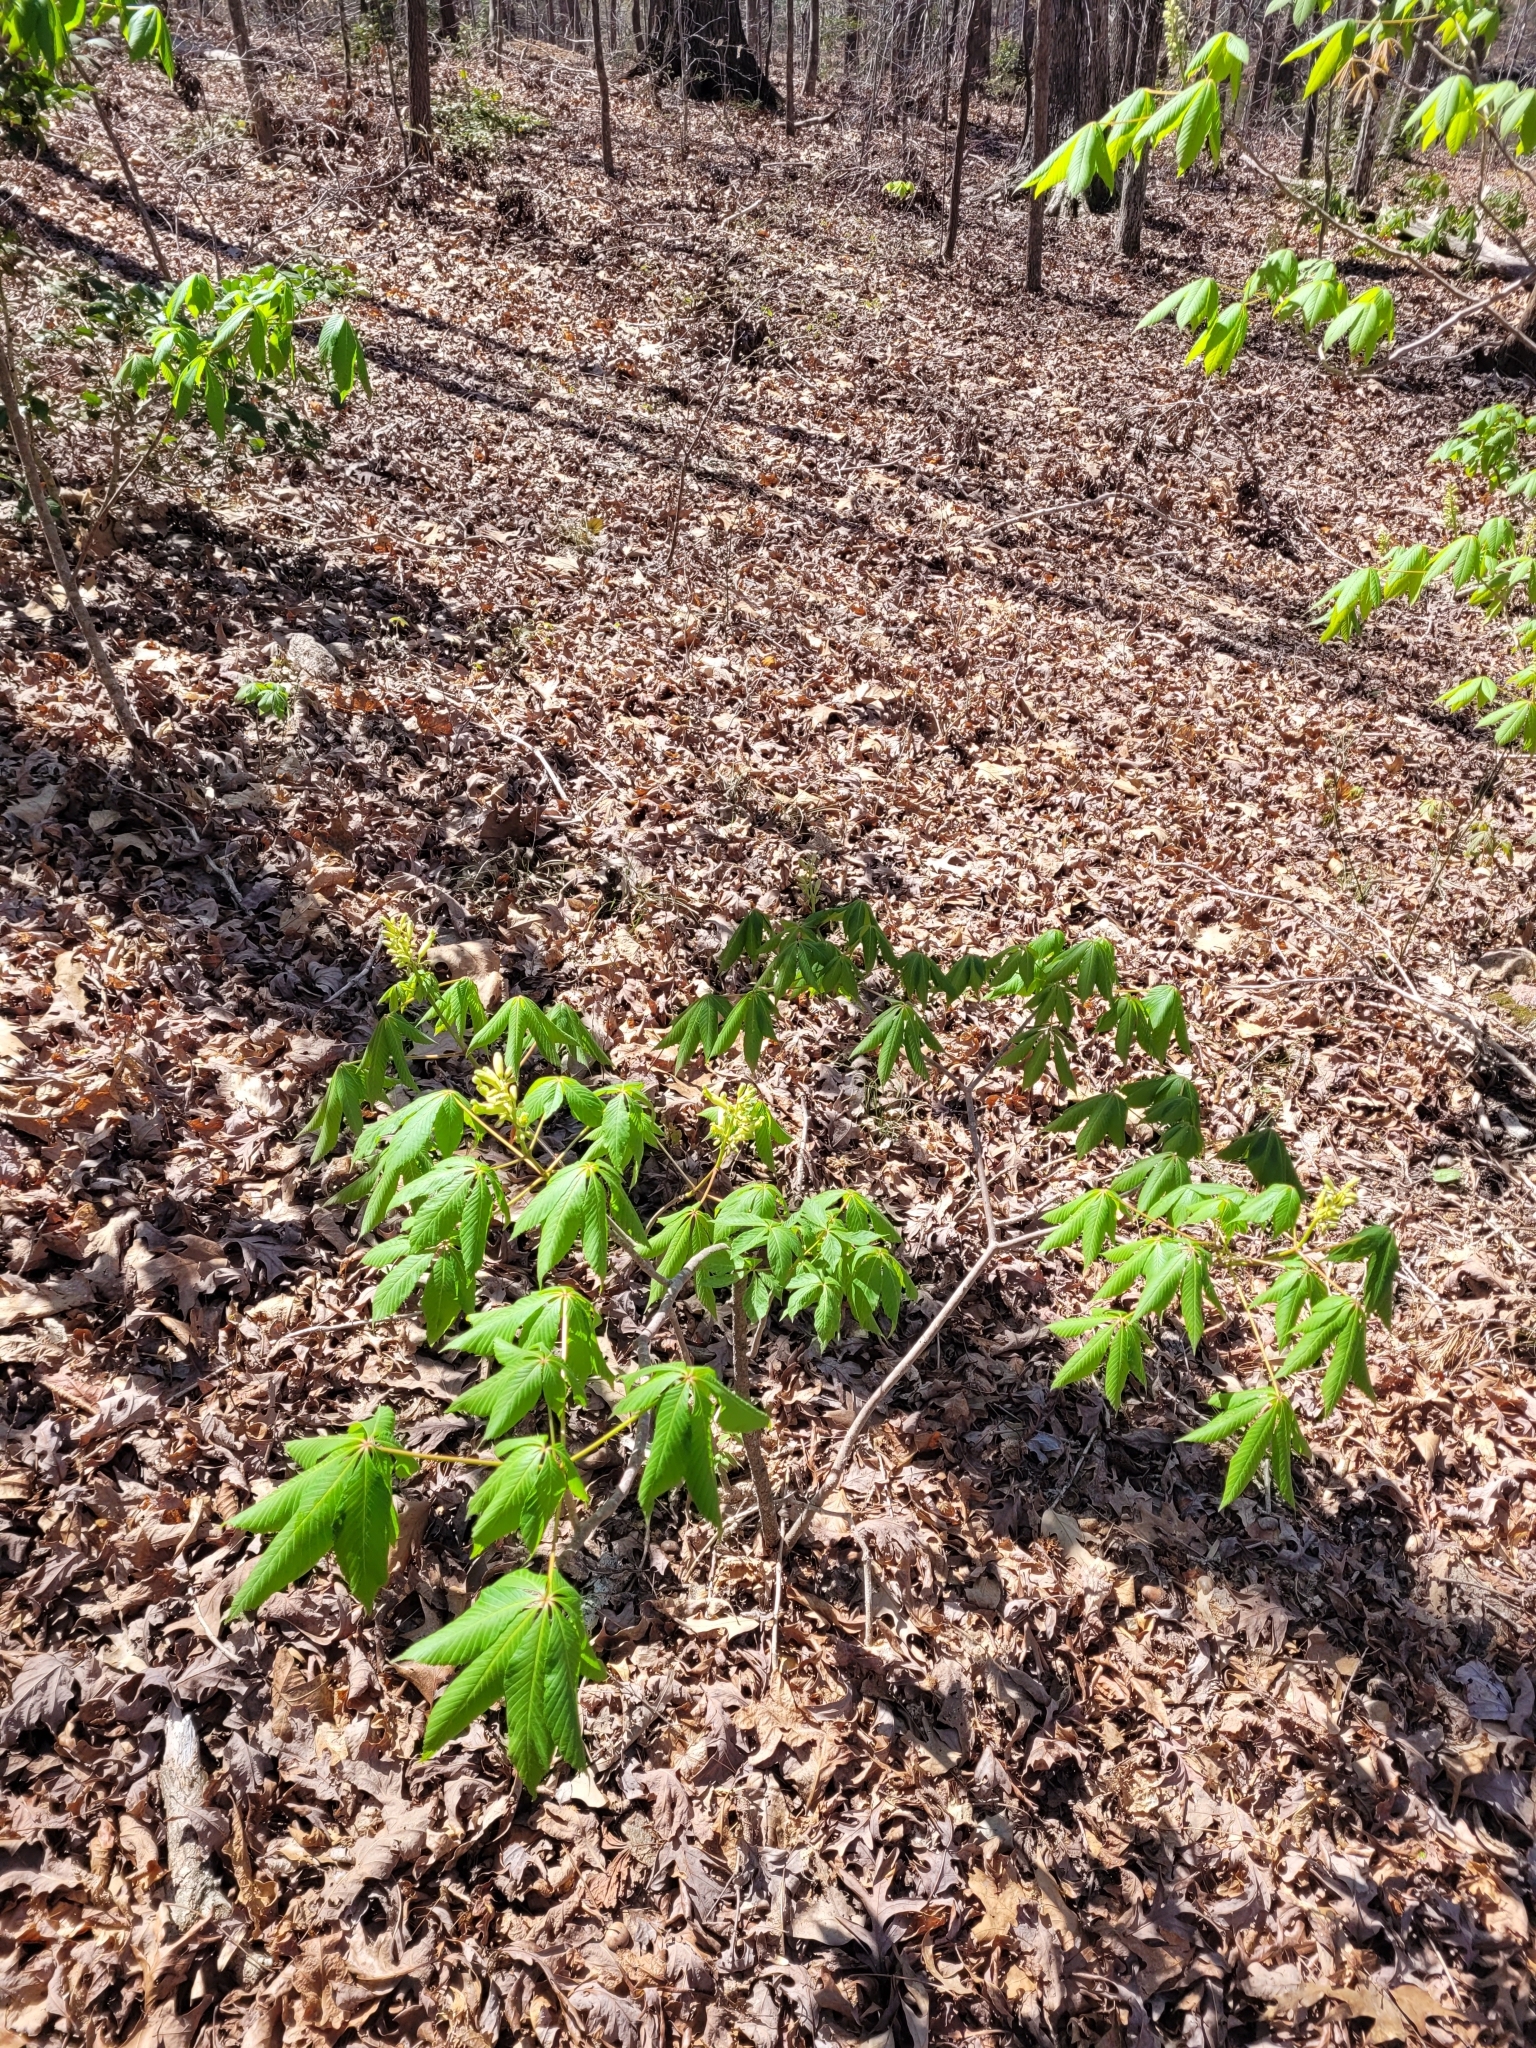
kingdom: Plantae
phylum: Tracheophyta
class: Magnoliopsida
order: Sapindales
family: Sapindaceae
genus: Aesculus
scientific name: Aesculus sylvatica
